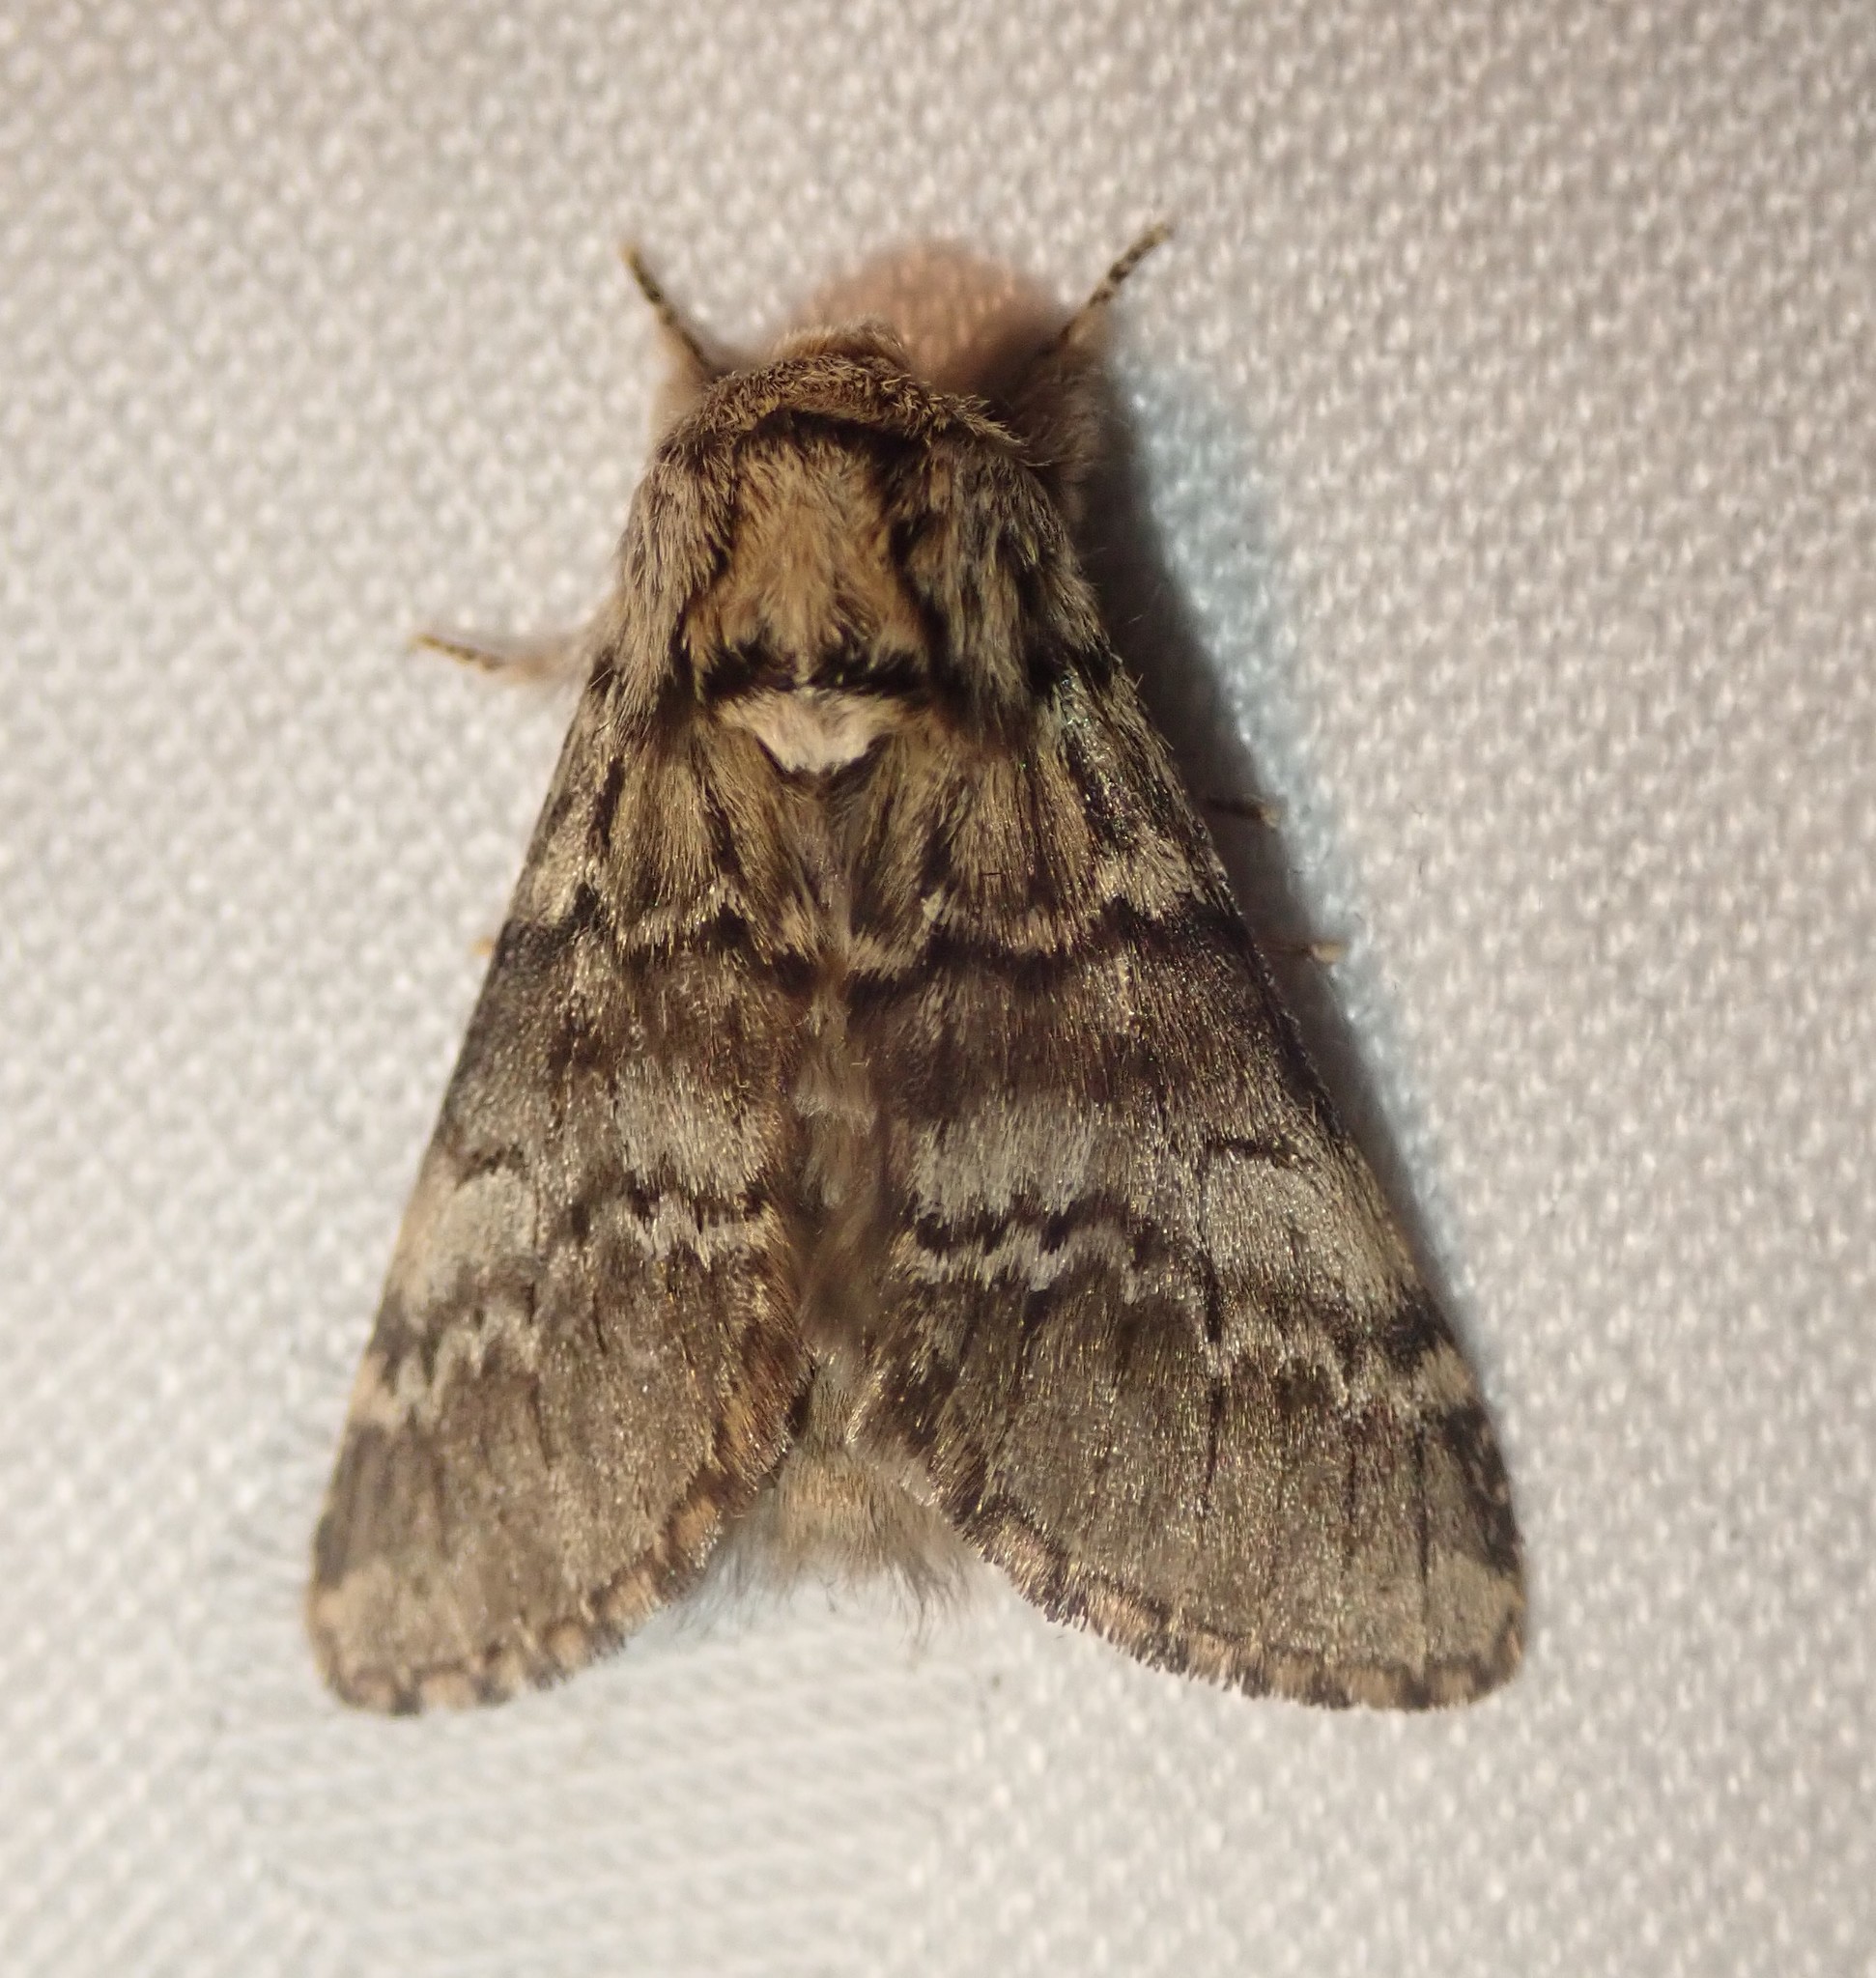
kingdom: Animalia
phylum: Arthropoda
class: Insecta
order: Lepidoptera
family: Notodontidae
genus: Drymonia
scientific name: Drymonia ruficornis
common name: Lunar marbled brown
